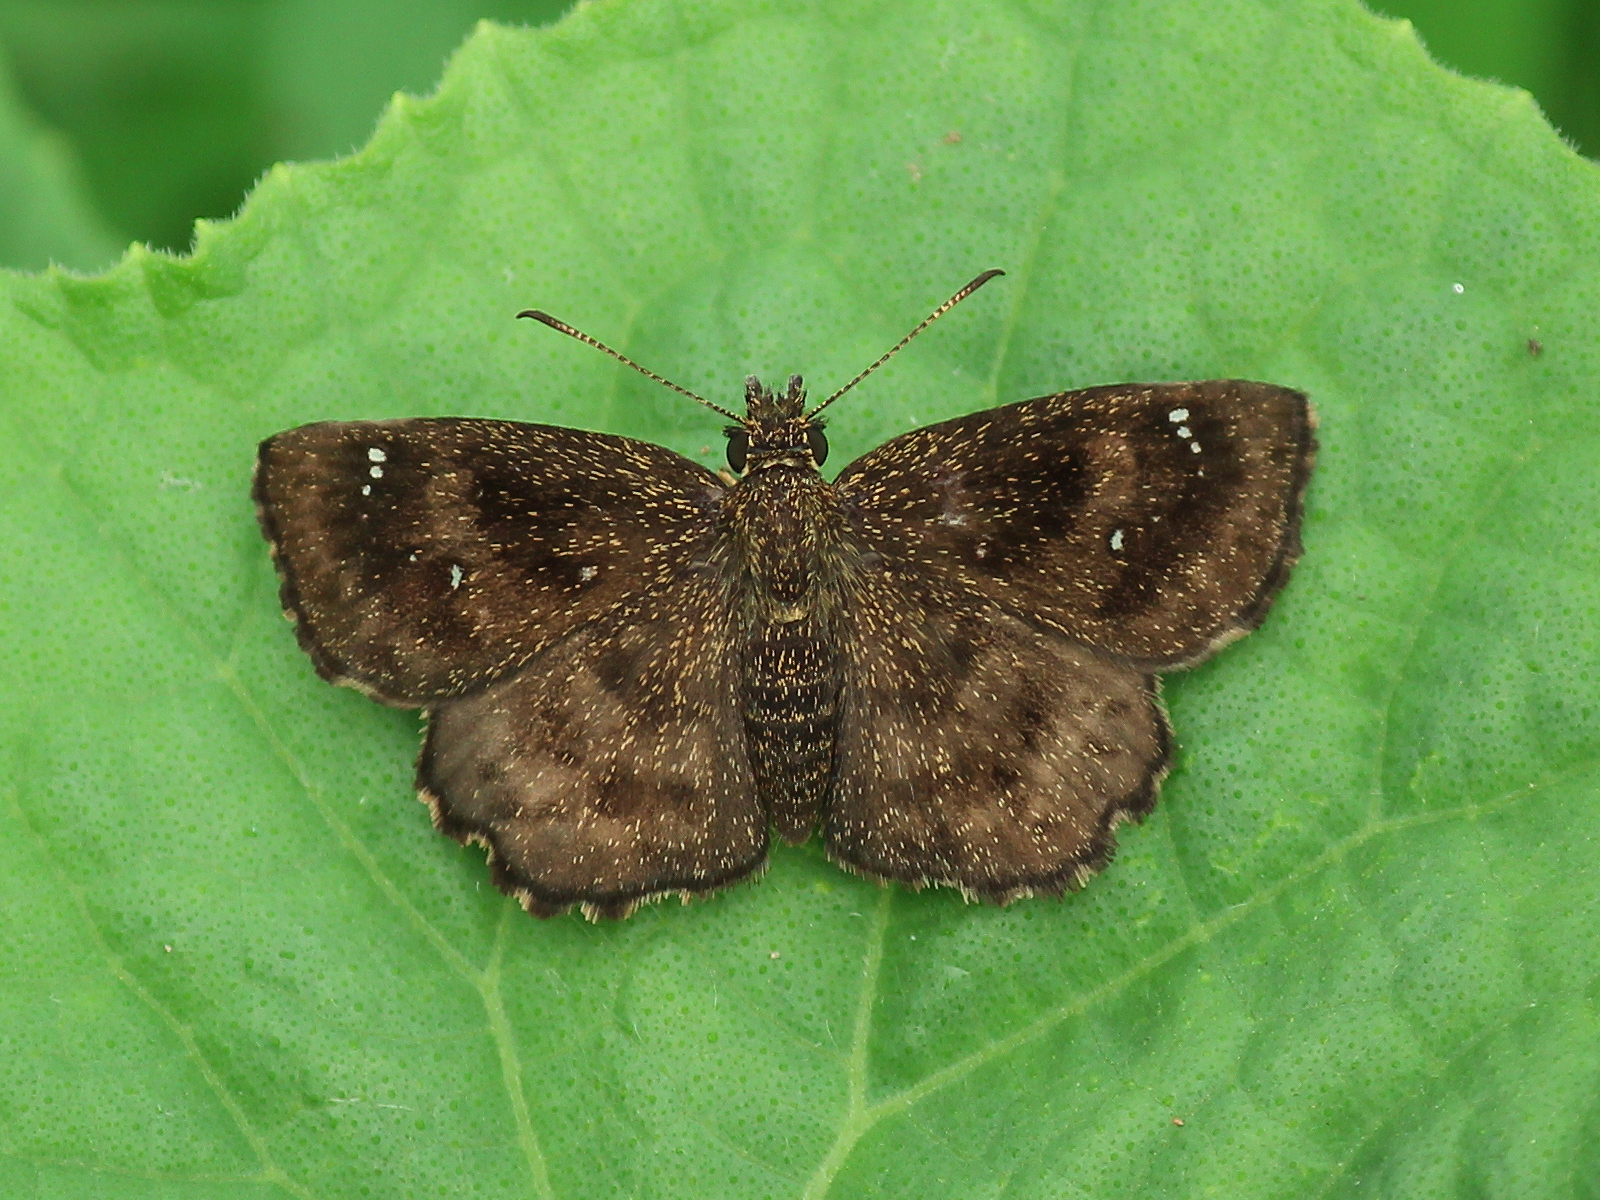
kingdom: Animalia
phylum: Arthropoda
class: Insecta
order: Lepidoptera
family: Hesperiidae
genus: Staphylus
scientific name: Staphylus mazans
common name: Mazans scallopwing
